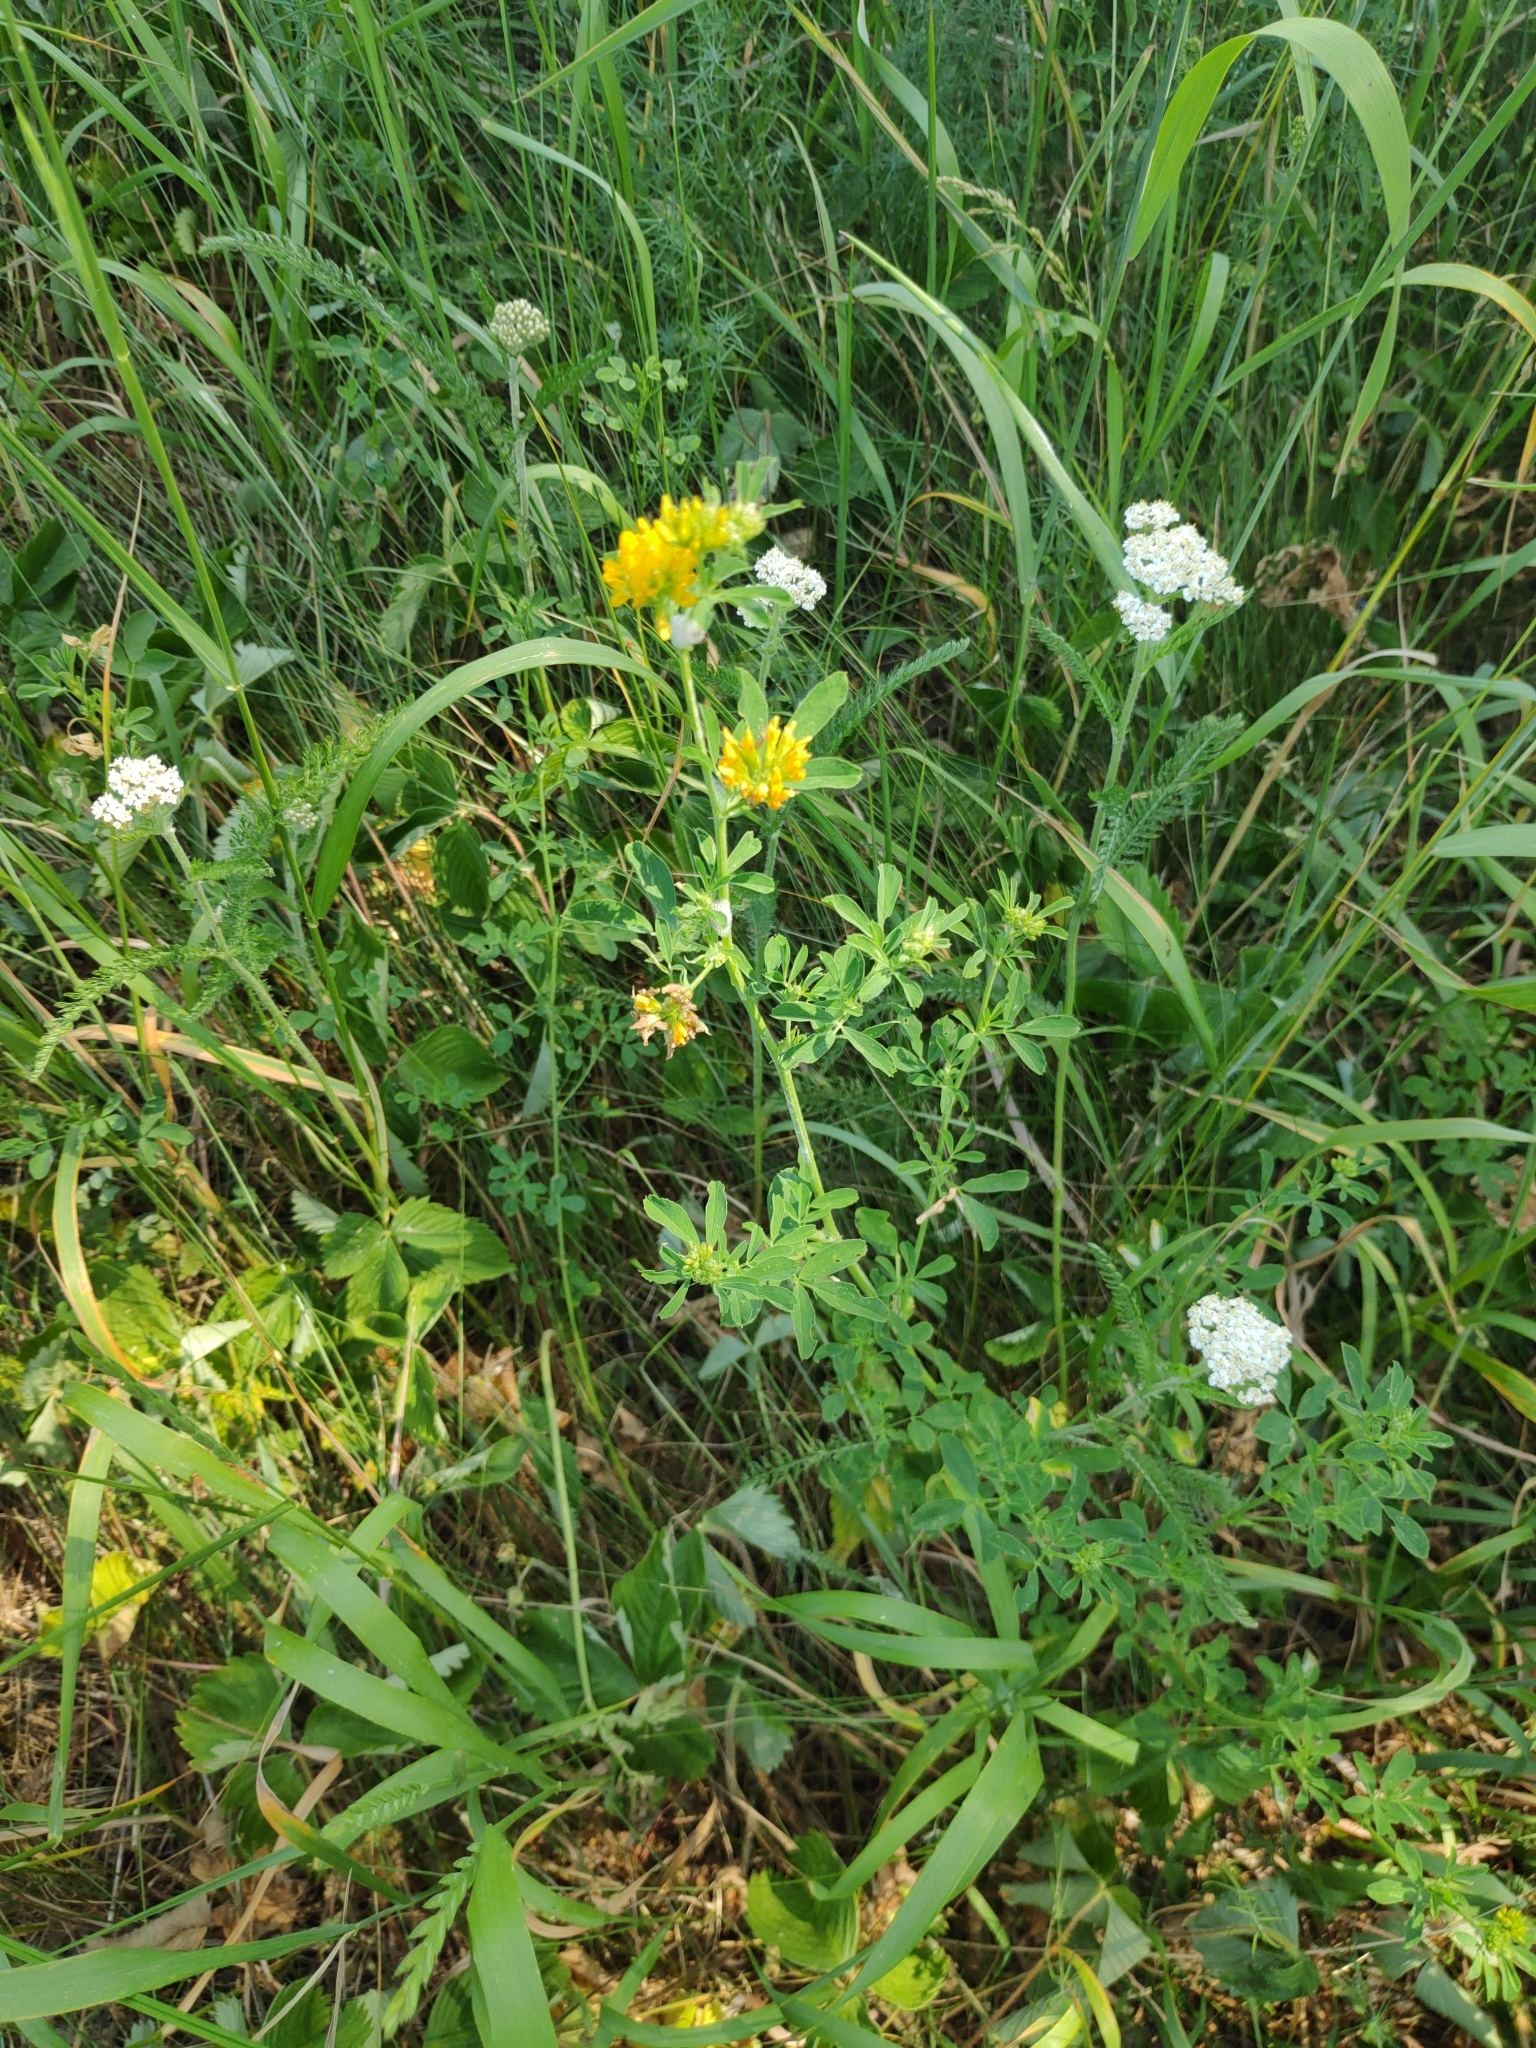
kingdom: Plantae
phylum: Tracheophyta
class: Magnoliopsida
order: Fabales
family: Fabaceae
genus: Medicago
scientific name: Medicago falcata
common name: Sickle medick
